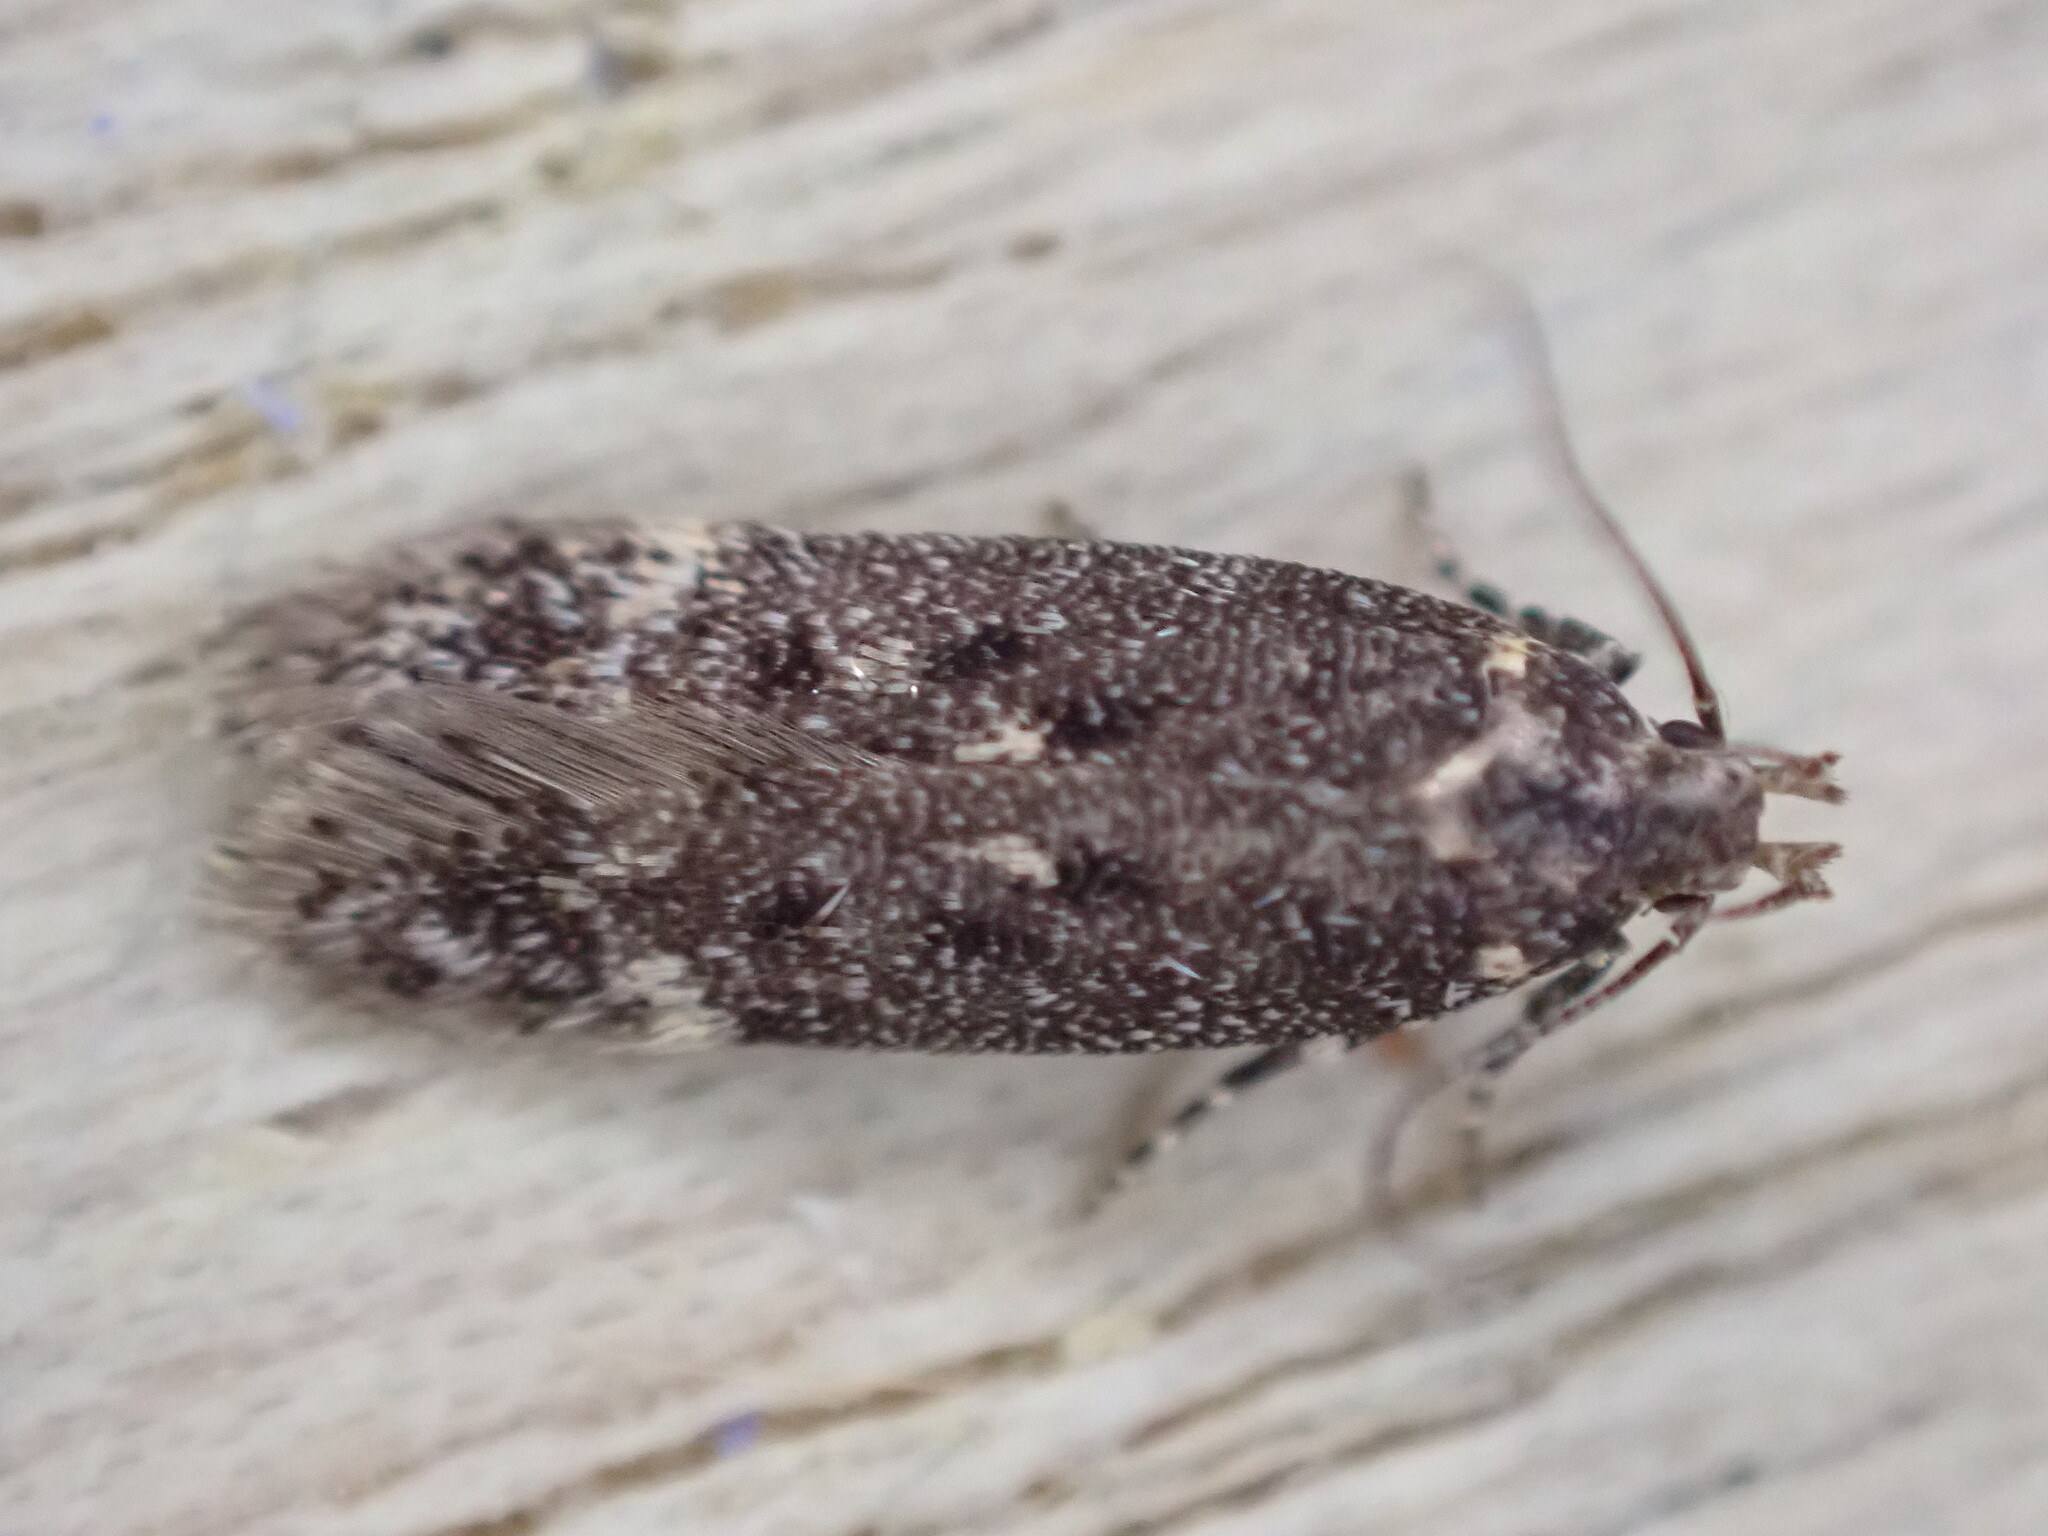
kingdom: Animalia
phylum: Arthropoda
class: Insecta
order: Lepidoptera
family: Gelechiidae
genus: Bryotropha
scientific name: Bryotropha affinis
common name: Dark groundling
